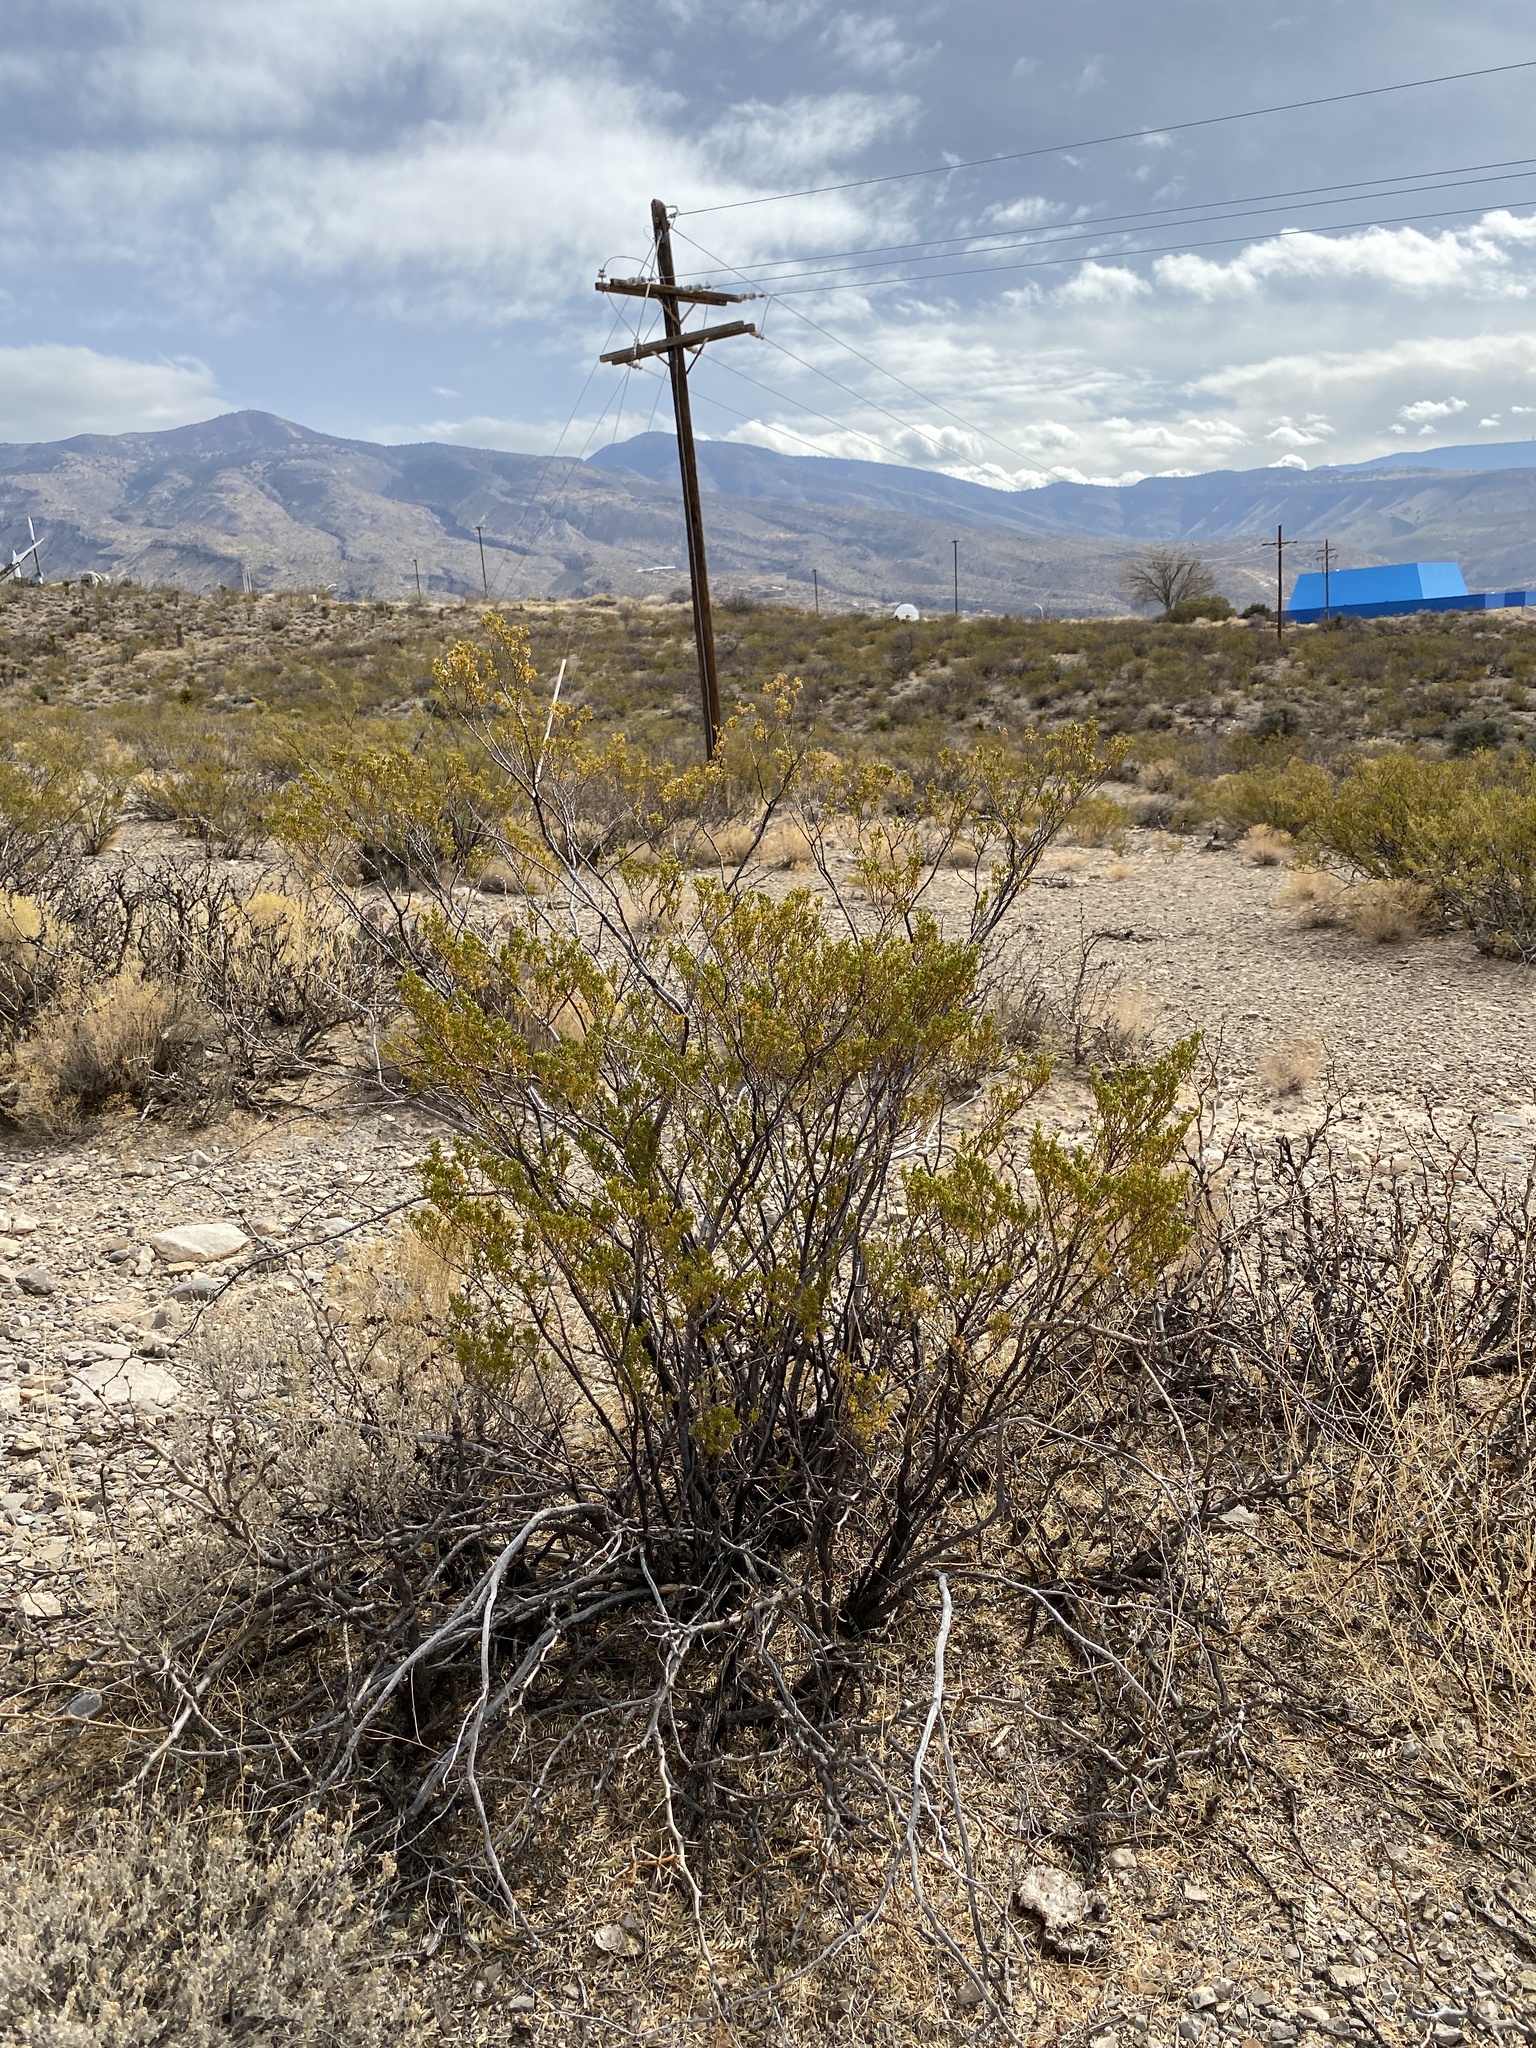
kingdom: Plantae
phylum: Tracheophyta
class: Magnoliopsida
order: Zygophyllales
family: Zygophyllaceae
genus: Larrea
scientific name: Larrea tridentata
